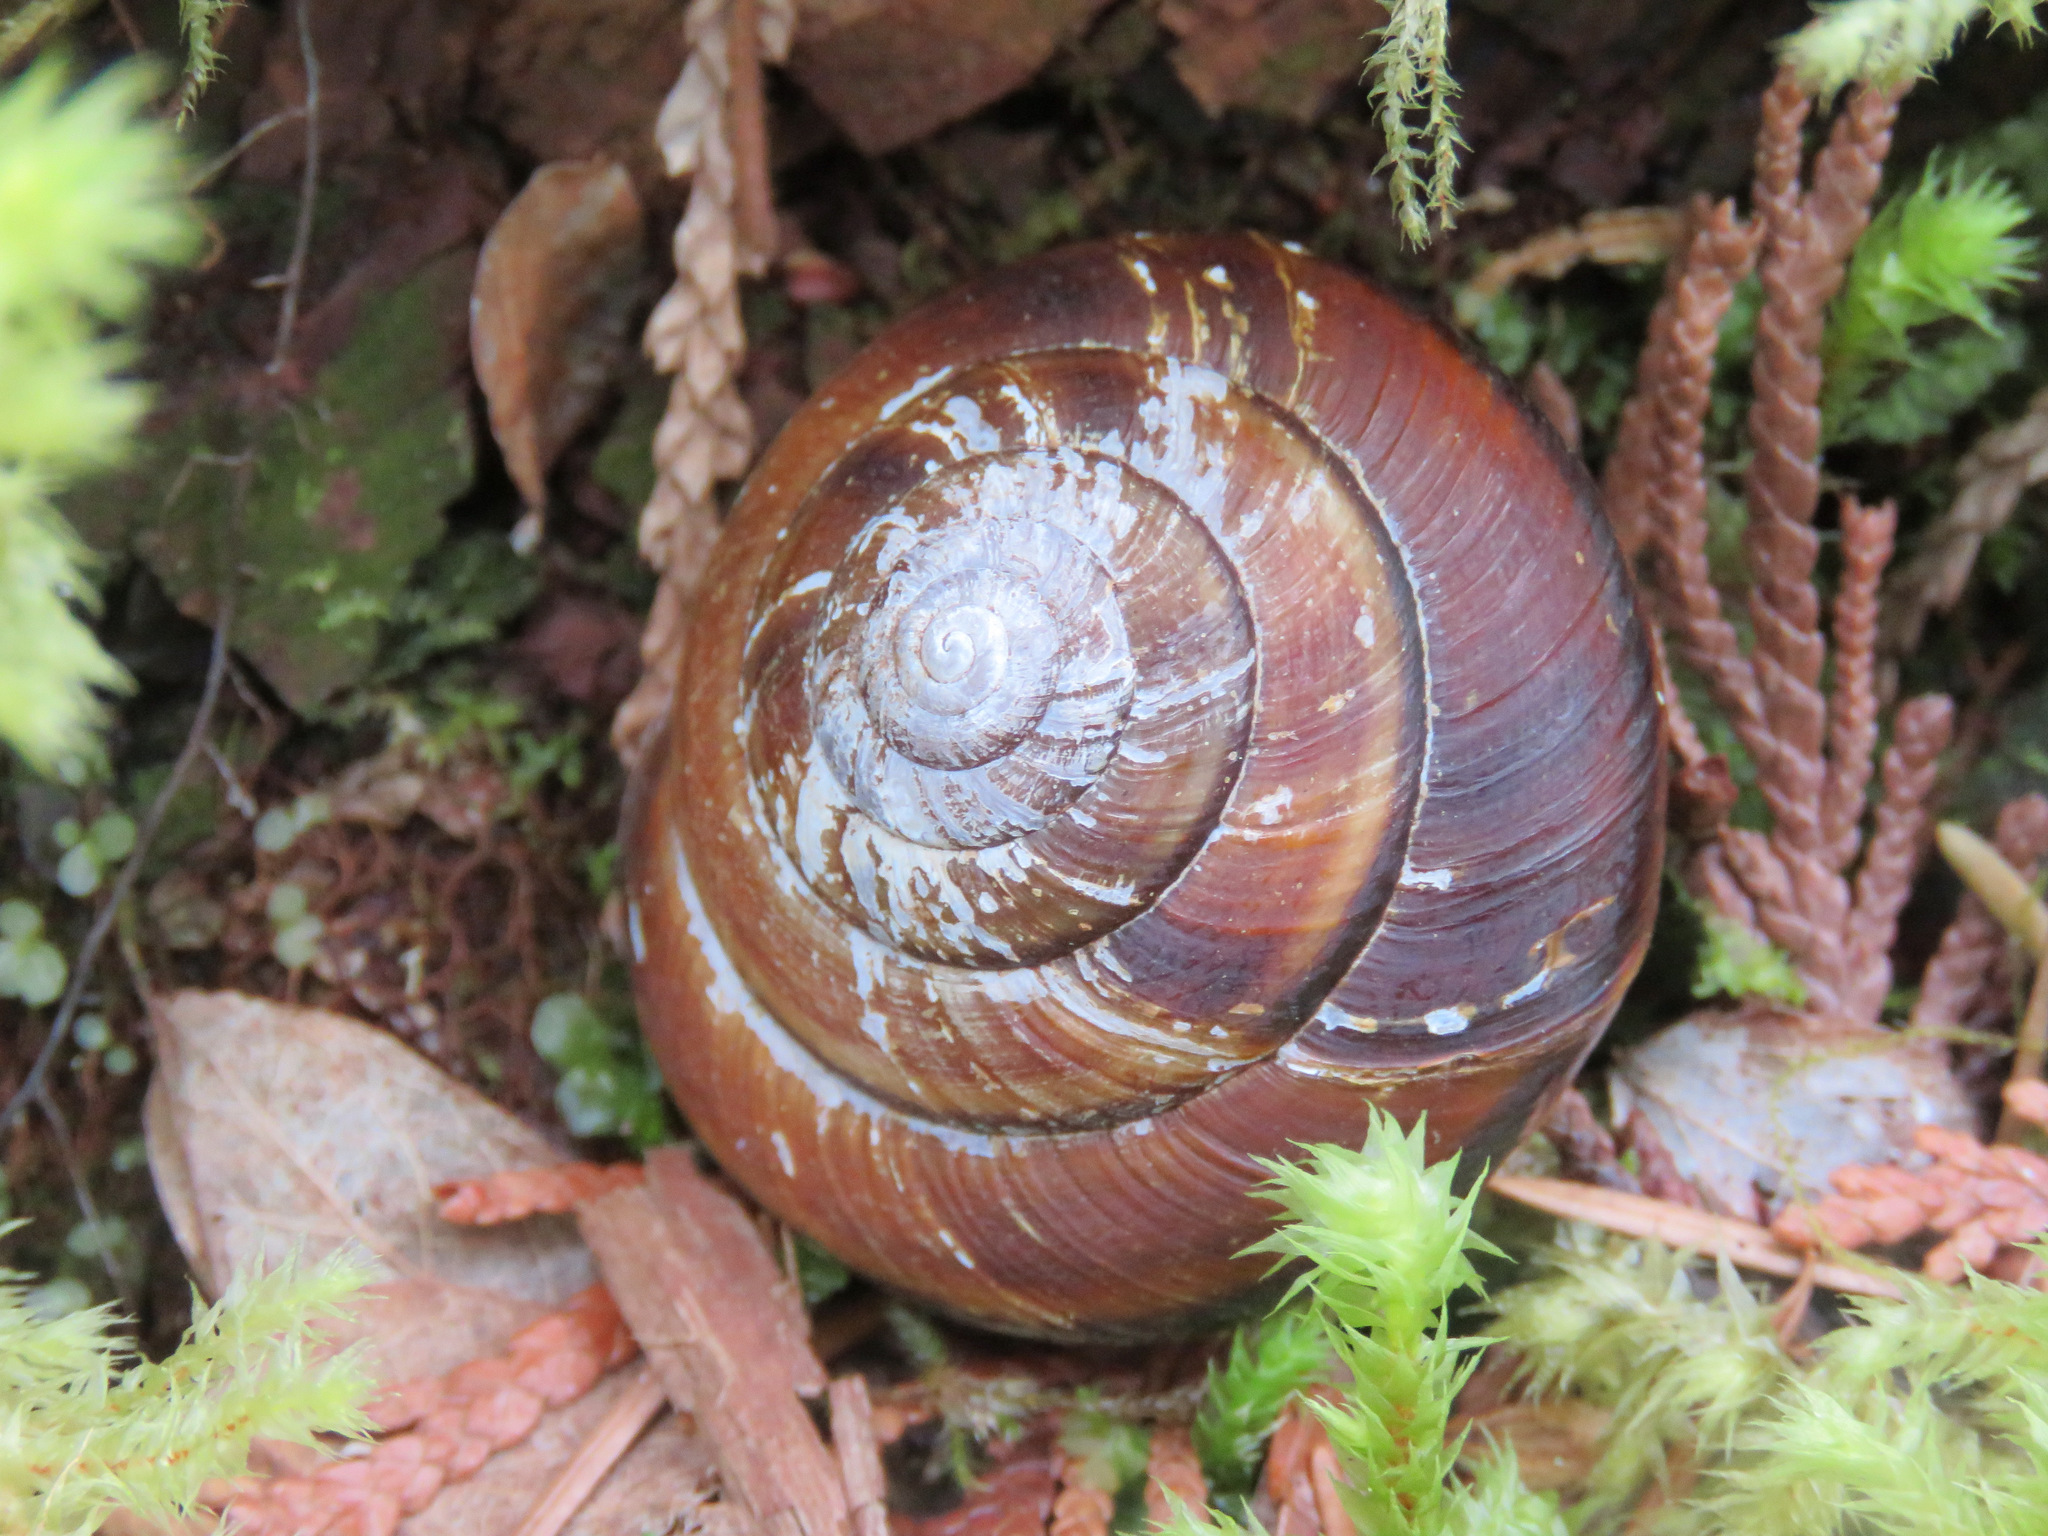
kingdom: Animalia
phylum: Mollusca
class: Gastropoda
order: Stylommatophora
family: Xanthonychidae
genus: Monadenia
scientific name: Monadenia fidelis
